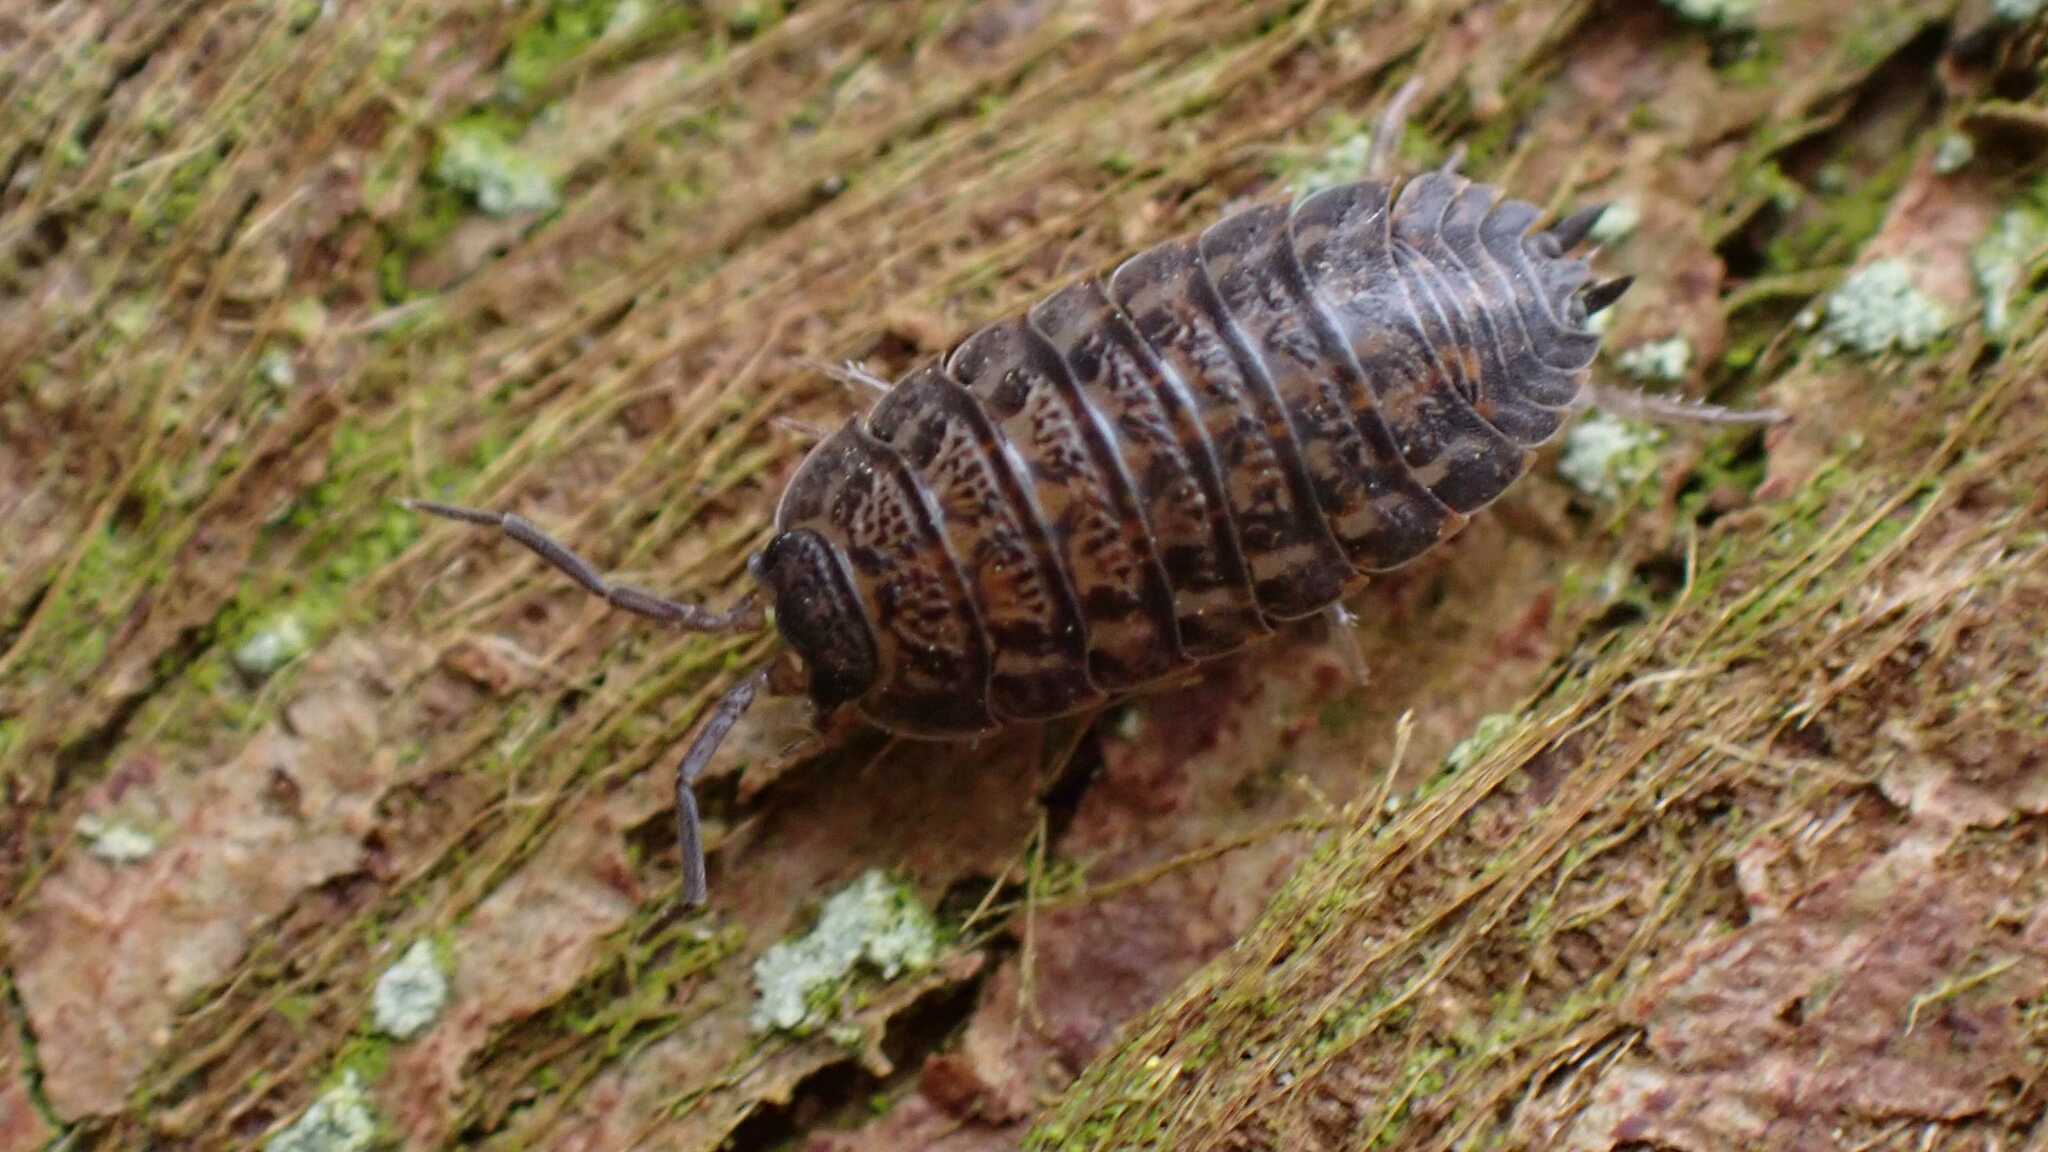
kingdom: Animalia
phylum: Arthropoda
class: Malacostraca
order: Isopoda
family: Trachelipodidae
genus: Trachelipus
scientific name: Trachelipus rathkii
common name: Isopod
